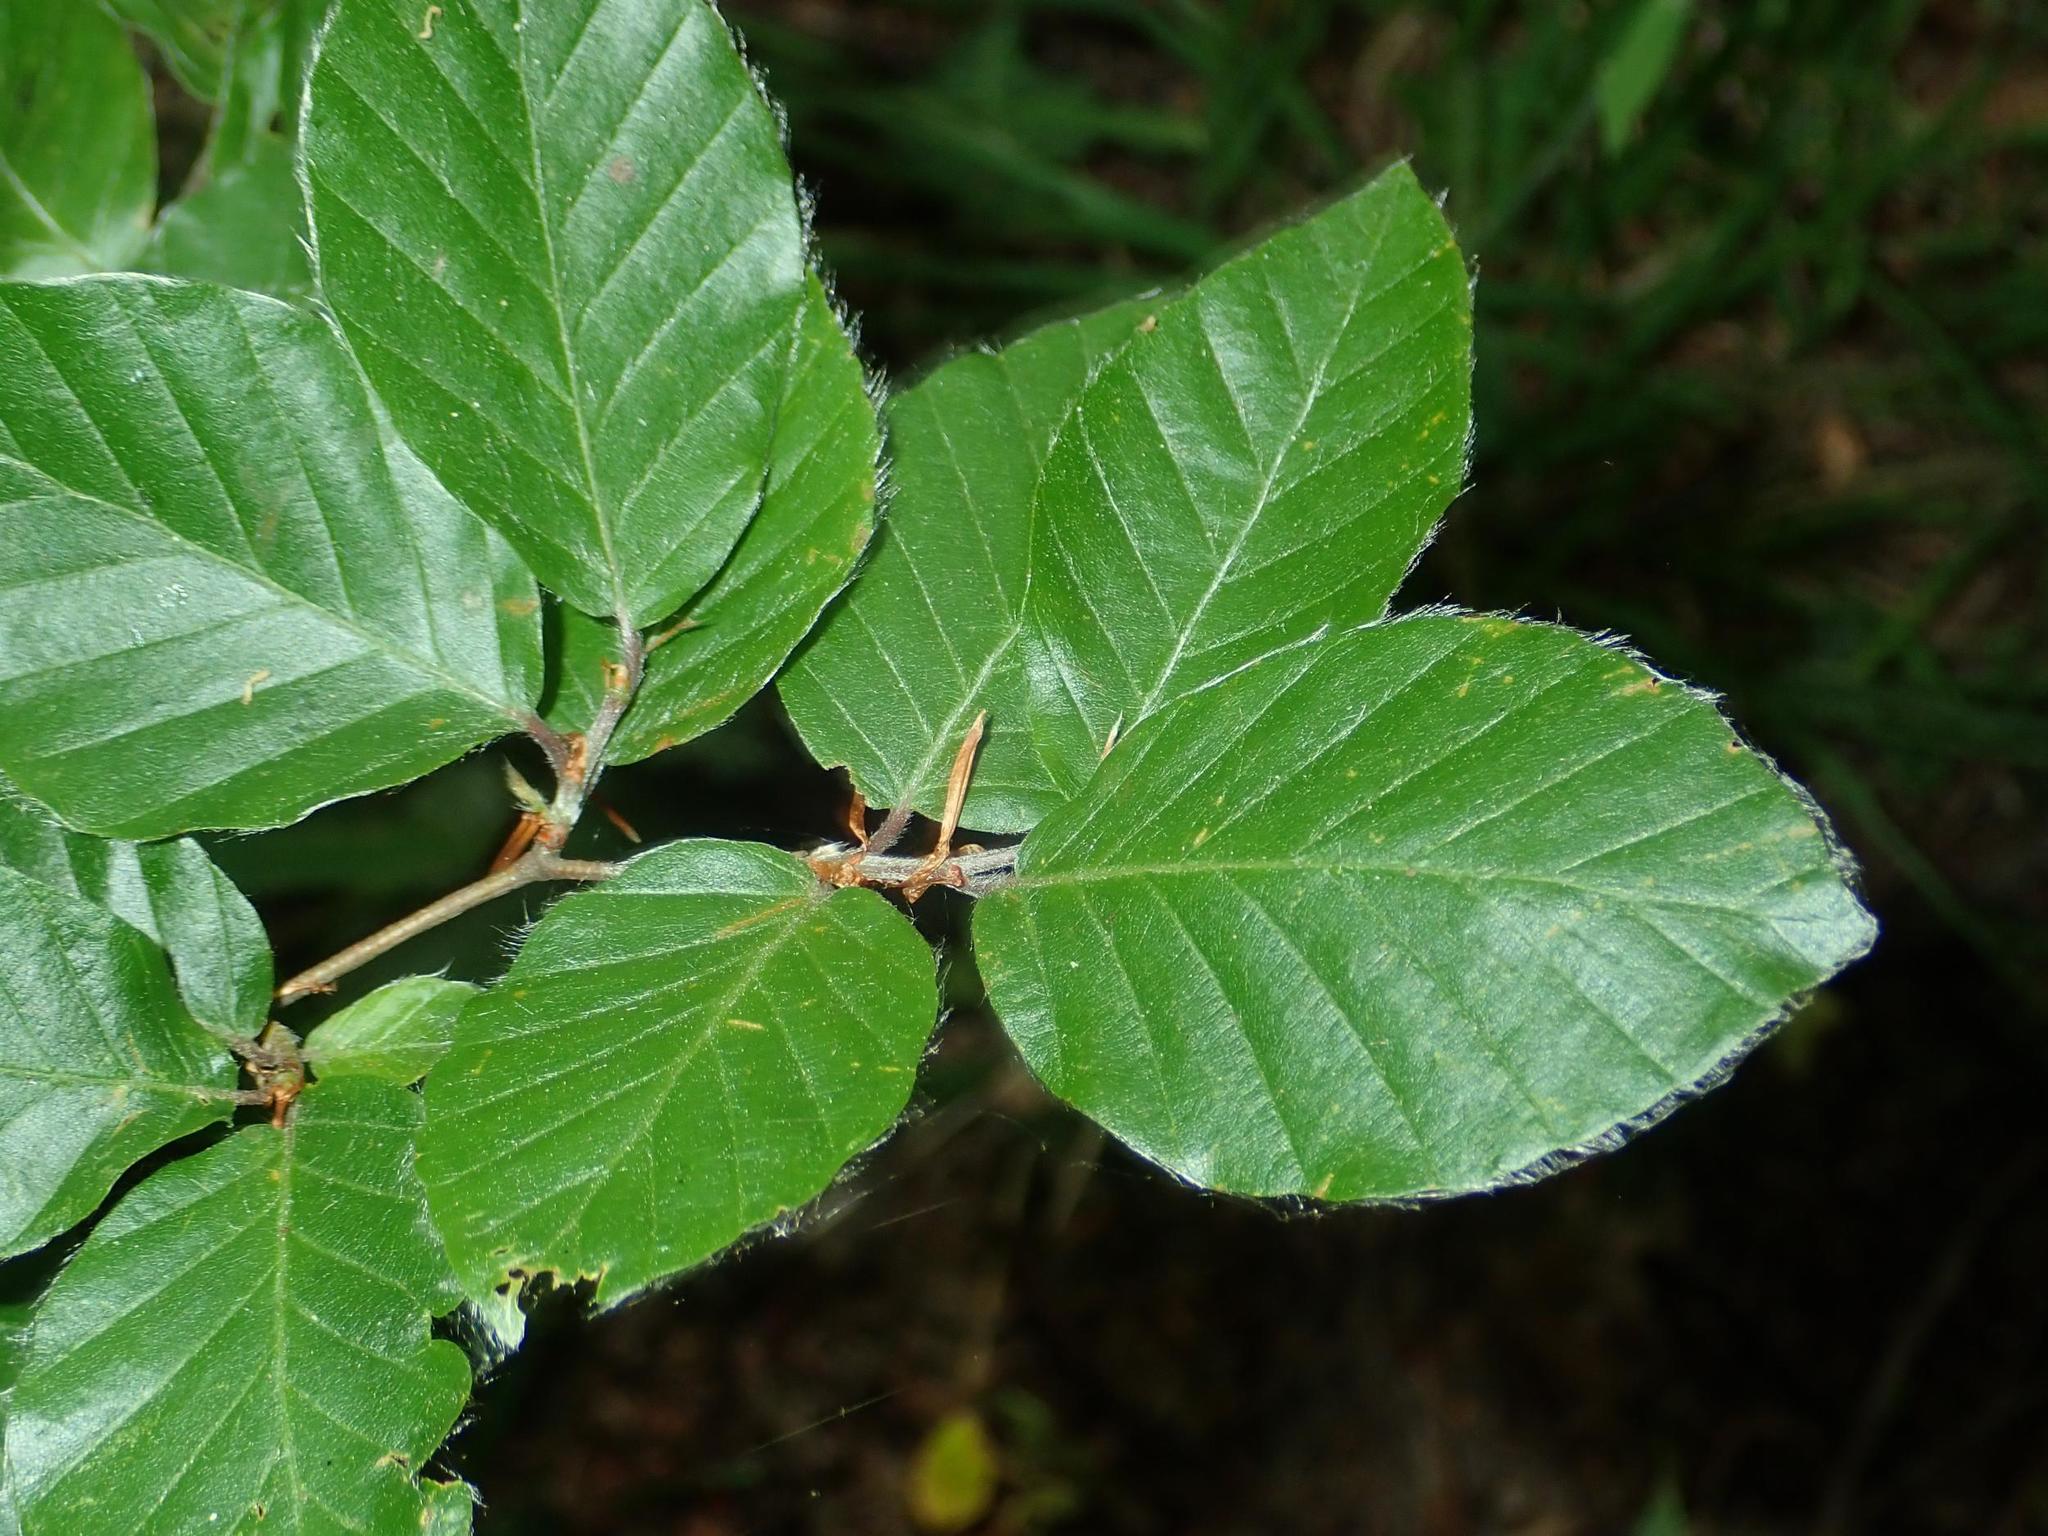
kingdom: Plantae
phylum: Tracheophyta
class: Magnoliopsida
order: Fagales
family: Fagaceae
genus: Fagus
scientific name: Fagus sylvatica
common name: Beech
